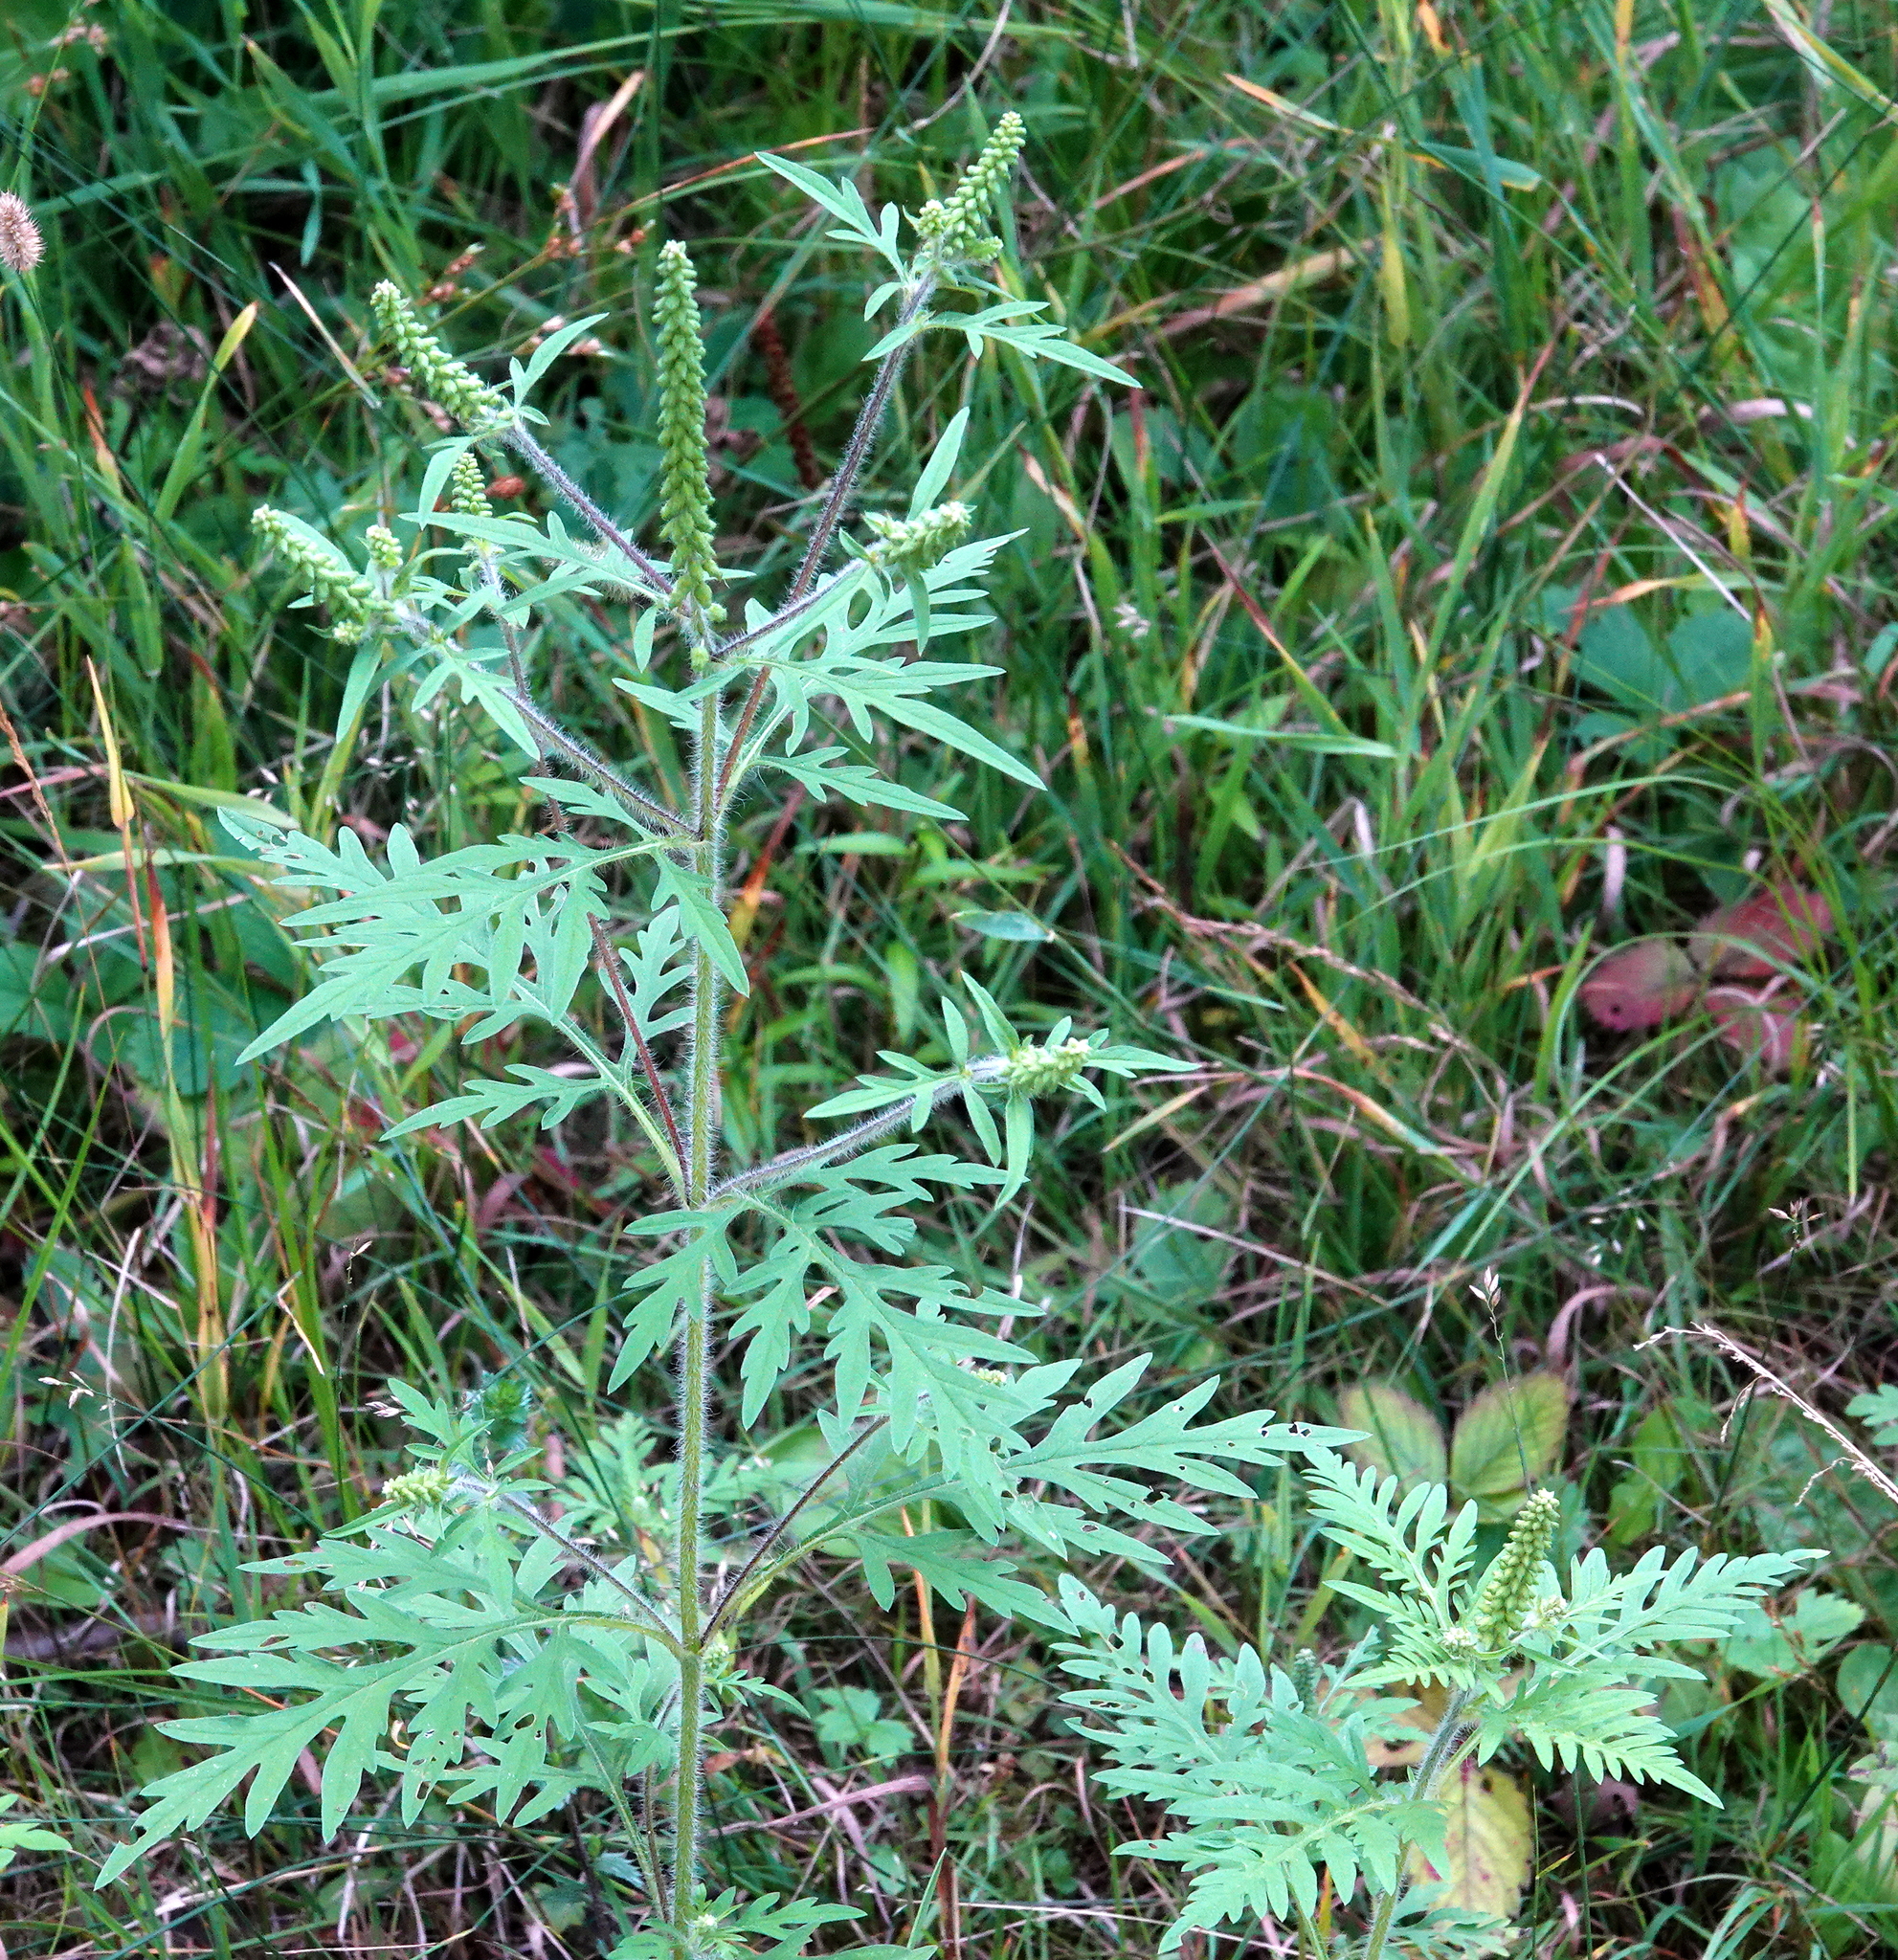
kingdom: Plantae
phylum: Tracheophyta
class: Magnoliopsida
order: Asterales
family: Asteraceae
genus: Ambrosia
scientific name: Ambrosia artemisiifolia
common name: Annual ragweed
